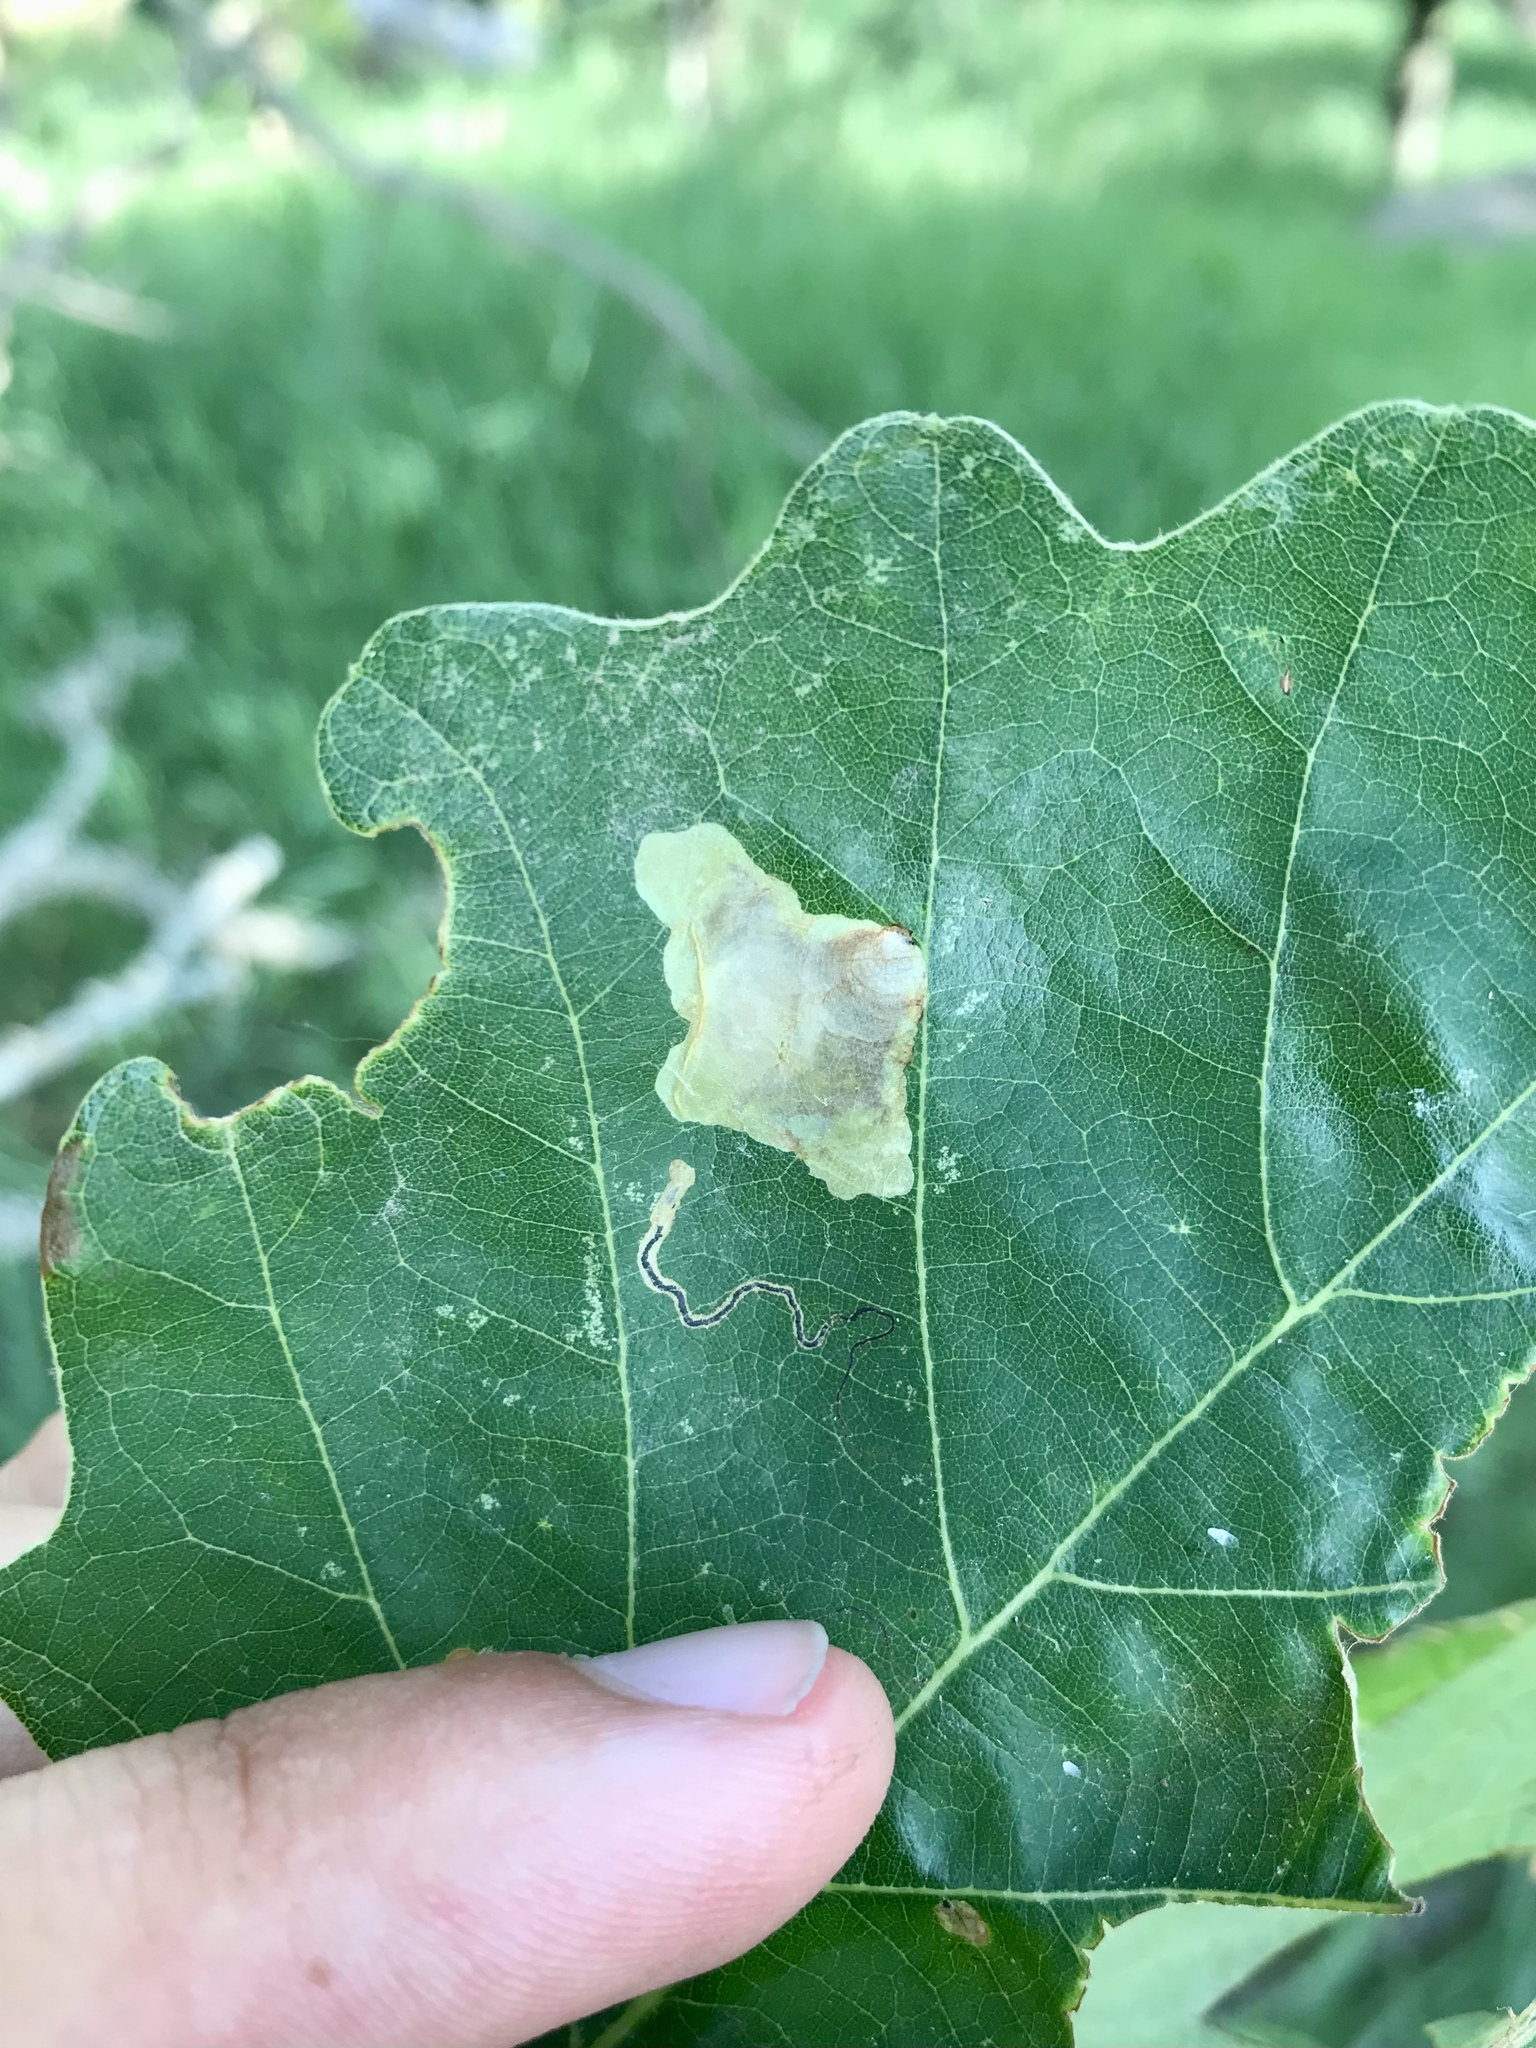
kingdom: Animalia
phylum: Arthropoda
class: Insecta
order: Lepidoptera
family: Gracillariidae
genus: Cameraria
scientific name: Cameraria hamadryadella
